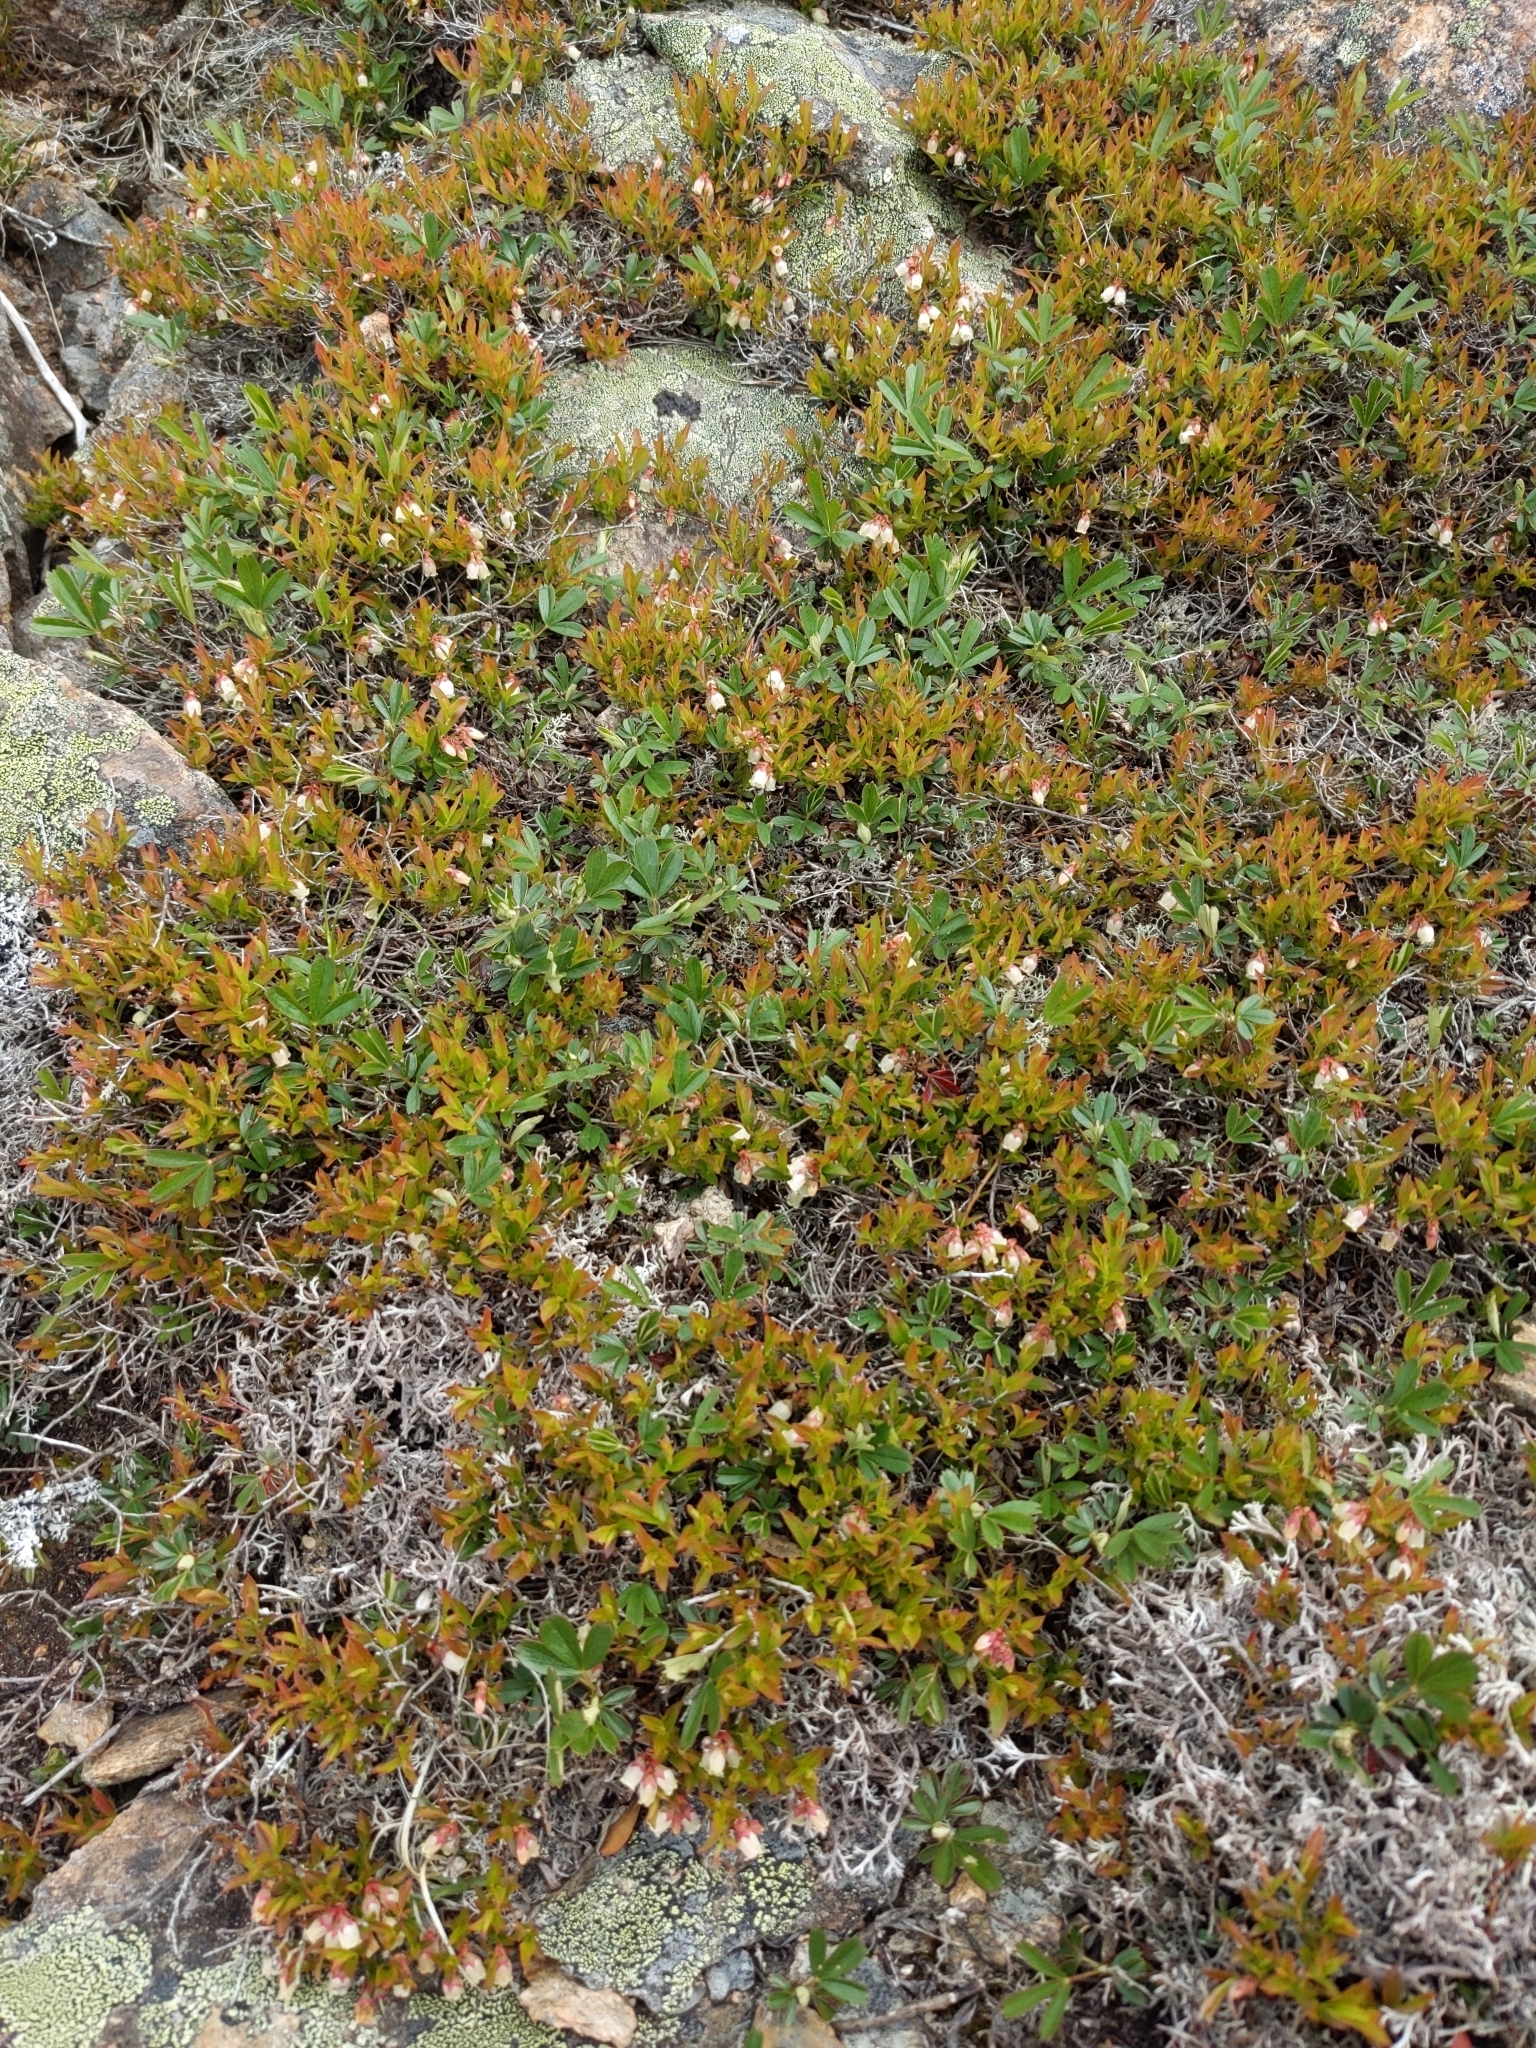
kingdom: Plantae
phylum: Tracheophyta
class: Magnoliopsida
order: Ericales
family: Ericaceae
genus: Vaccinium
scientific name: Vaccinium boreale
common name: Northern blueberry
